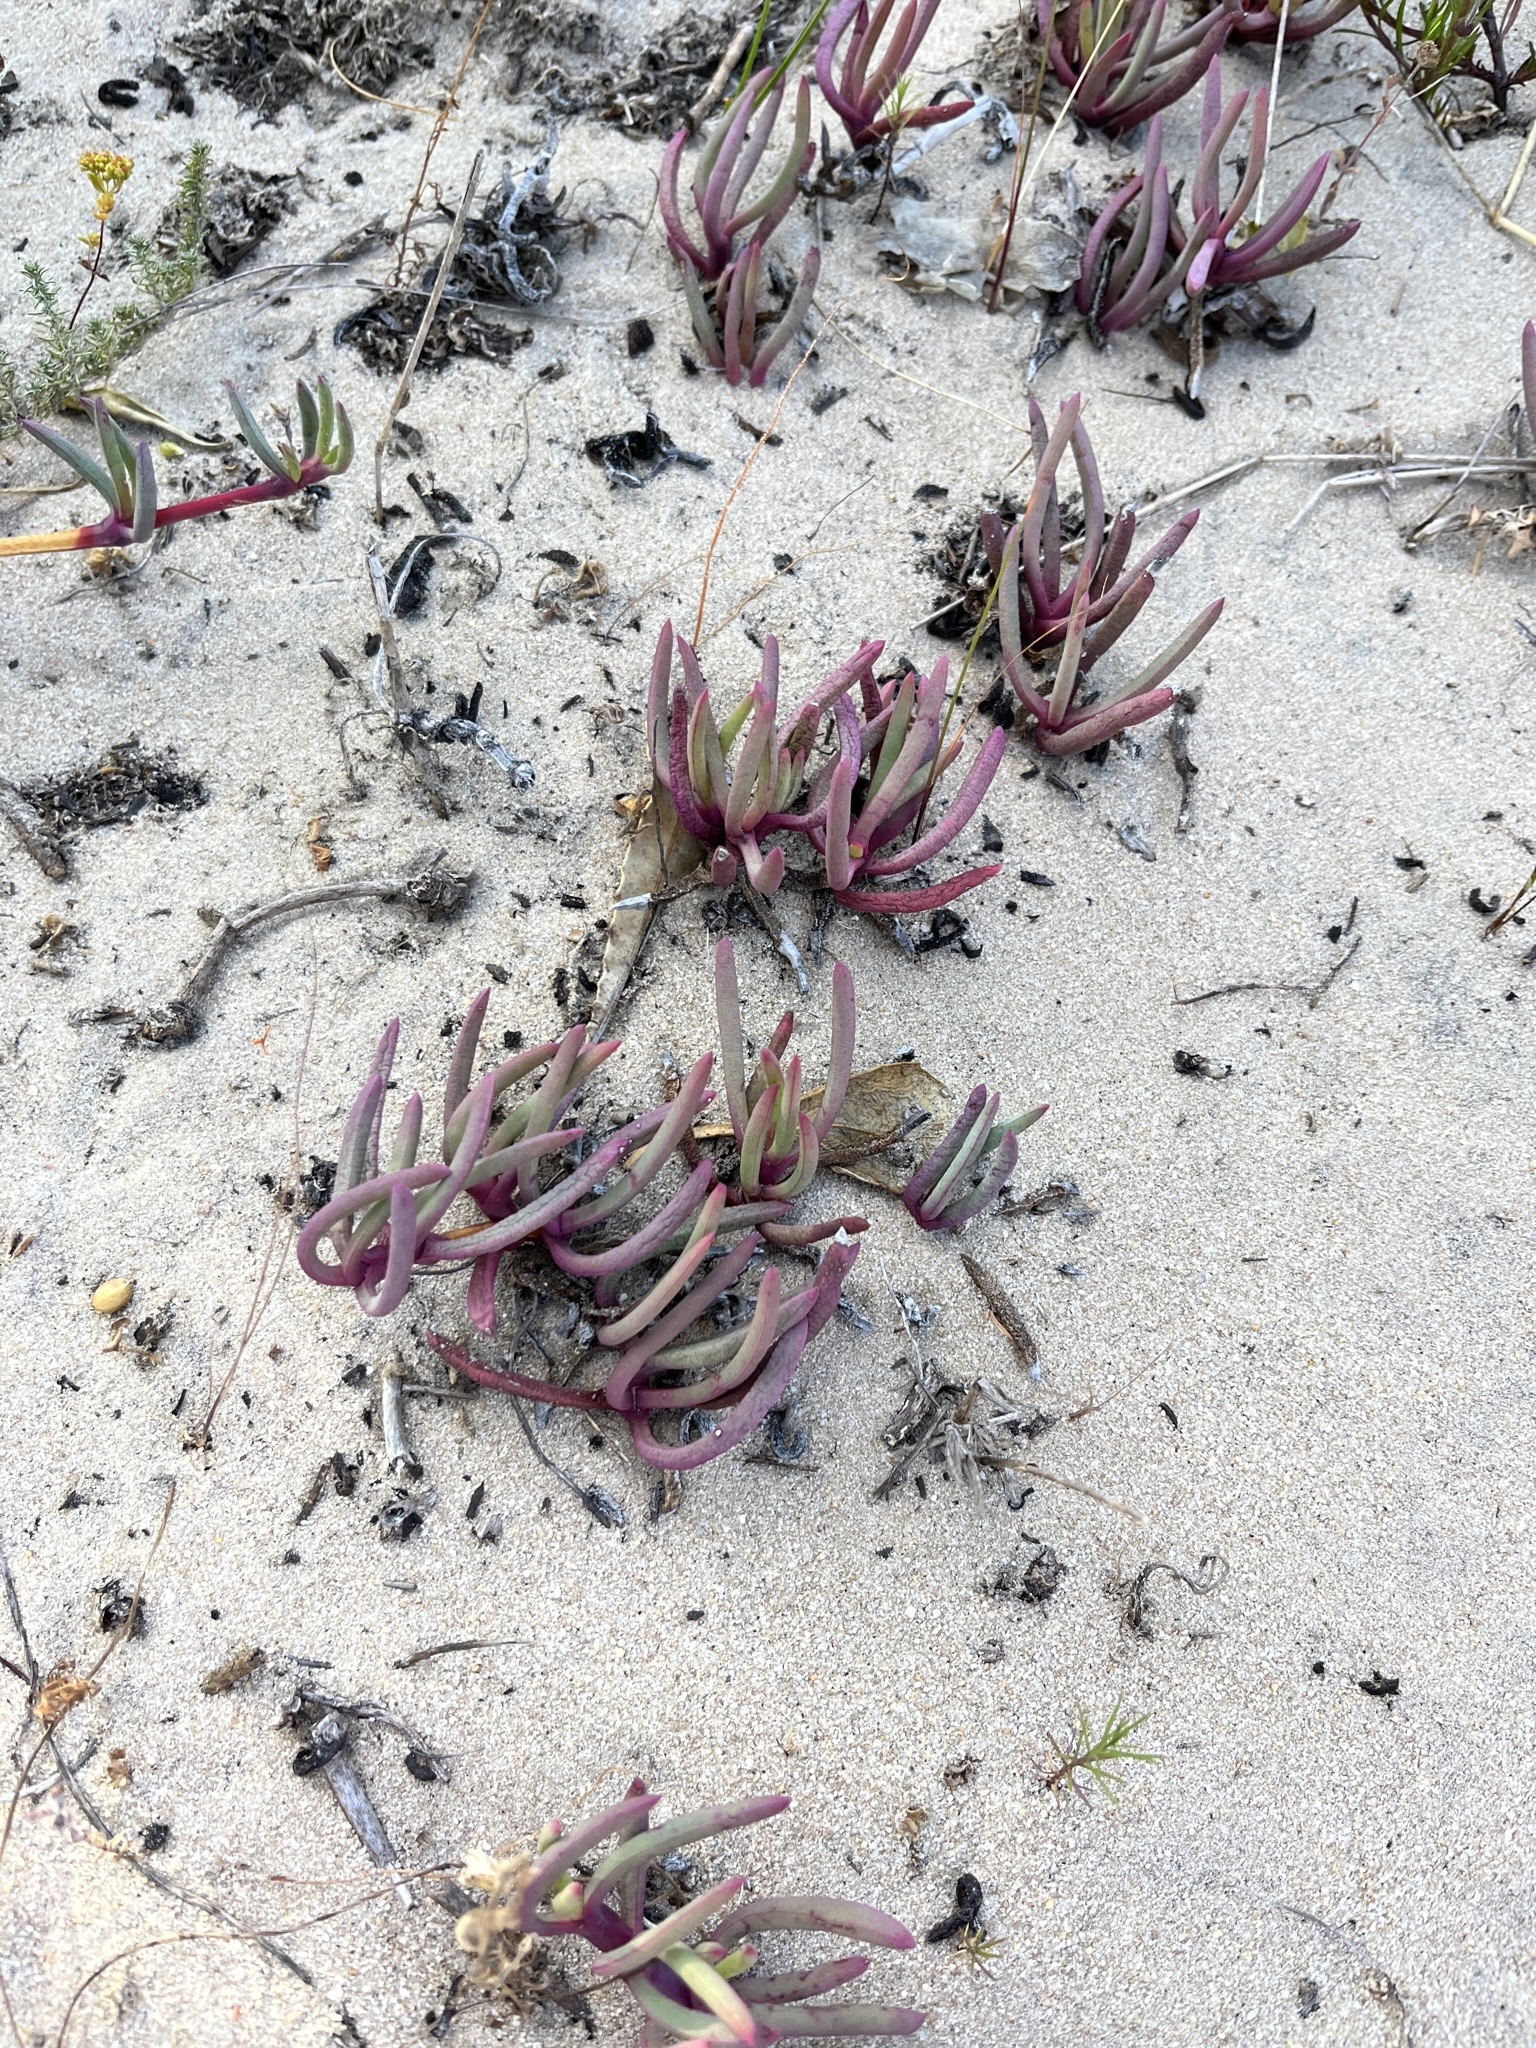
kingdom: Plantae
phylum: Tracheophyta
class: Magnoliopsida
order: Caryophyllales
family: Aizoaceae
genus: Jordaaniella
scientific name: Jordaaniella dubia
